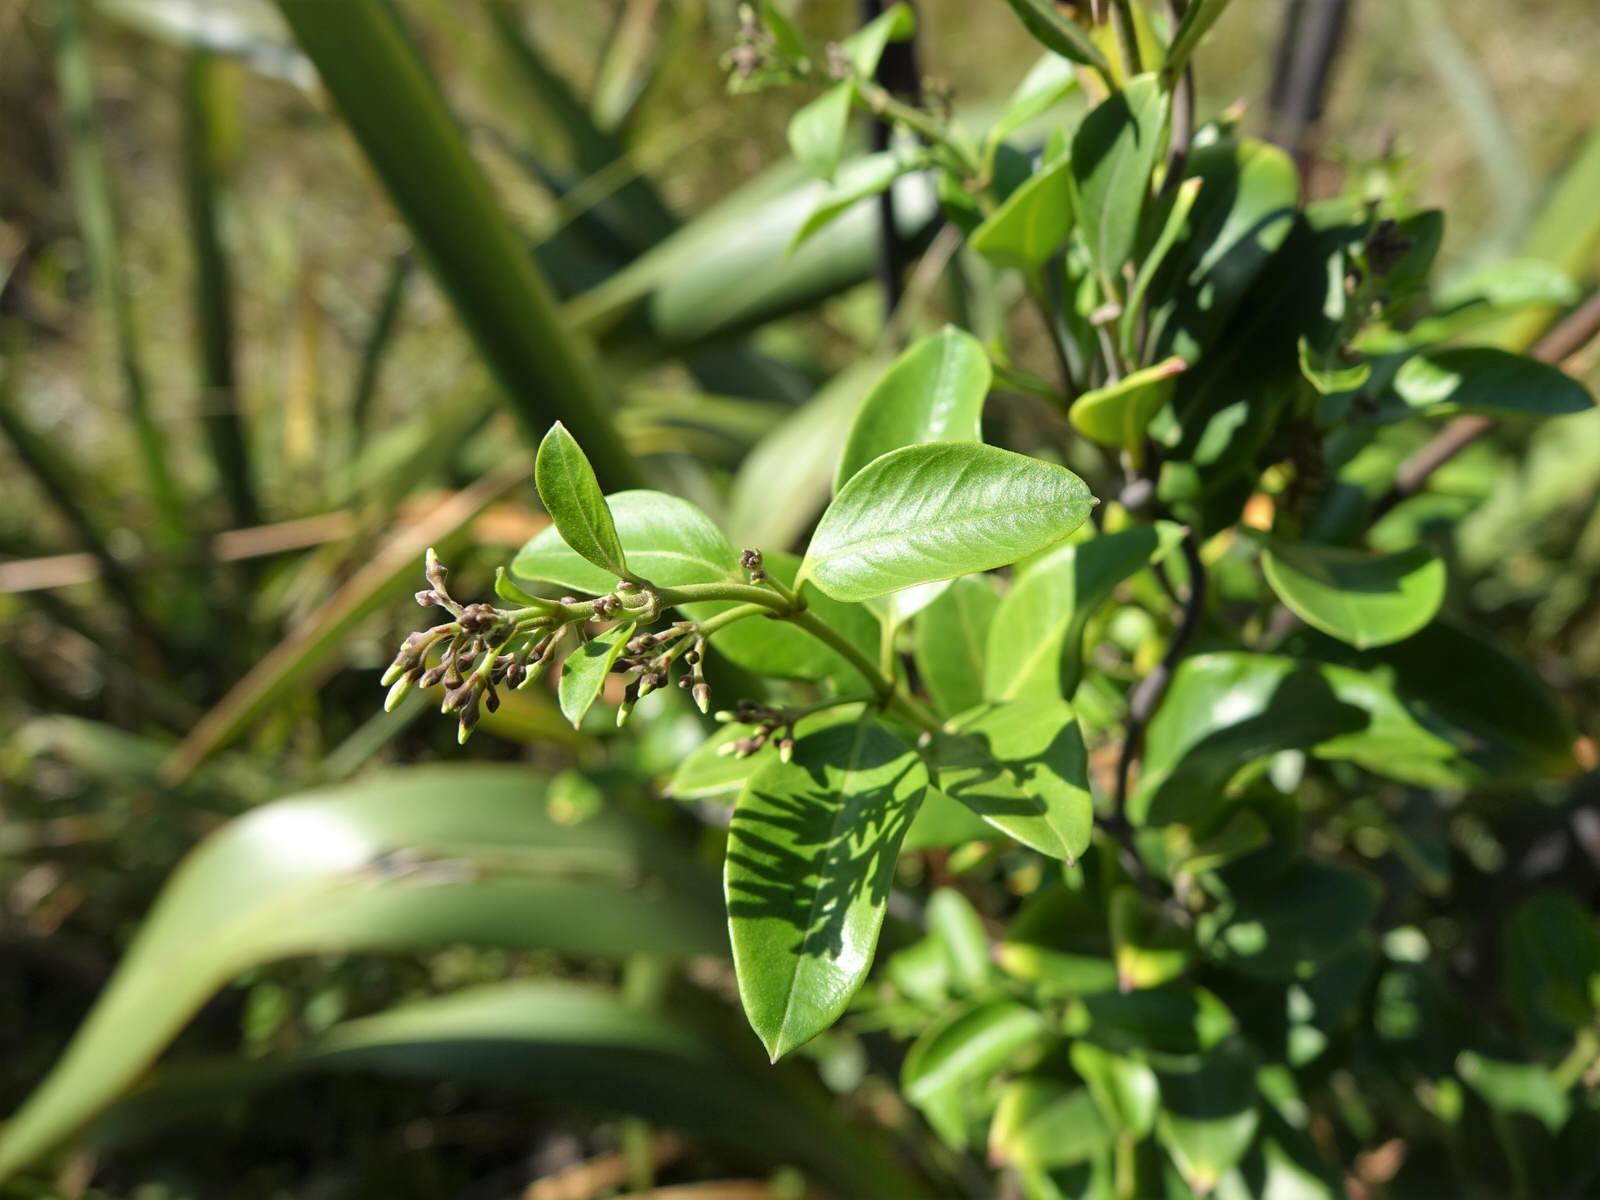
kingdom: Plantae
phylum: Tracheophyta
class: Magnoliopsida
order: Gentianales
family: Apocynaceae
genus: Parsonsia
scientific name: Parsonsia heterophylla
